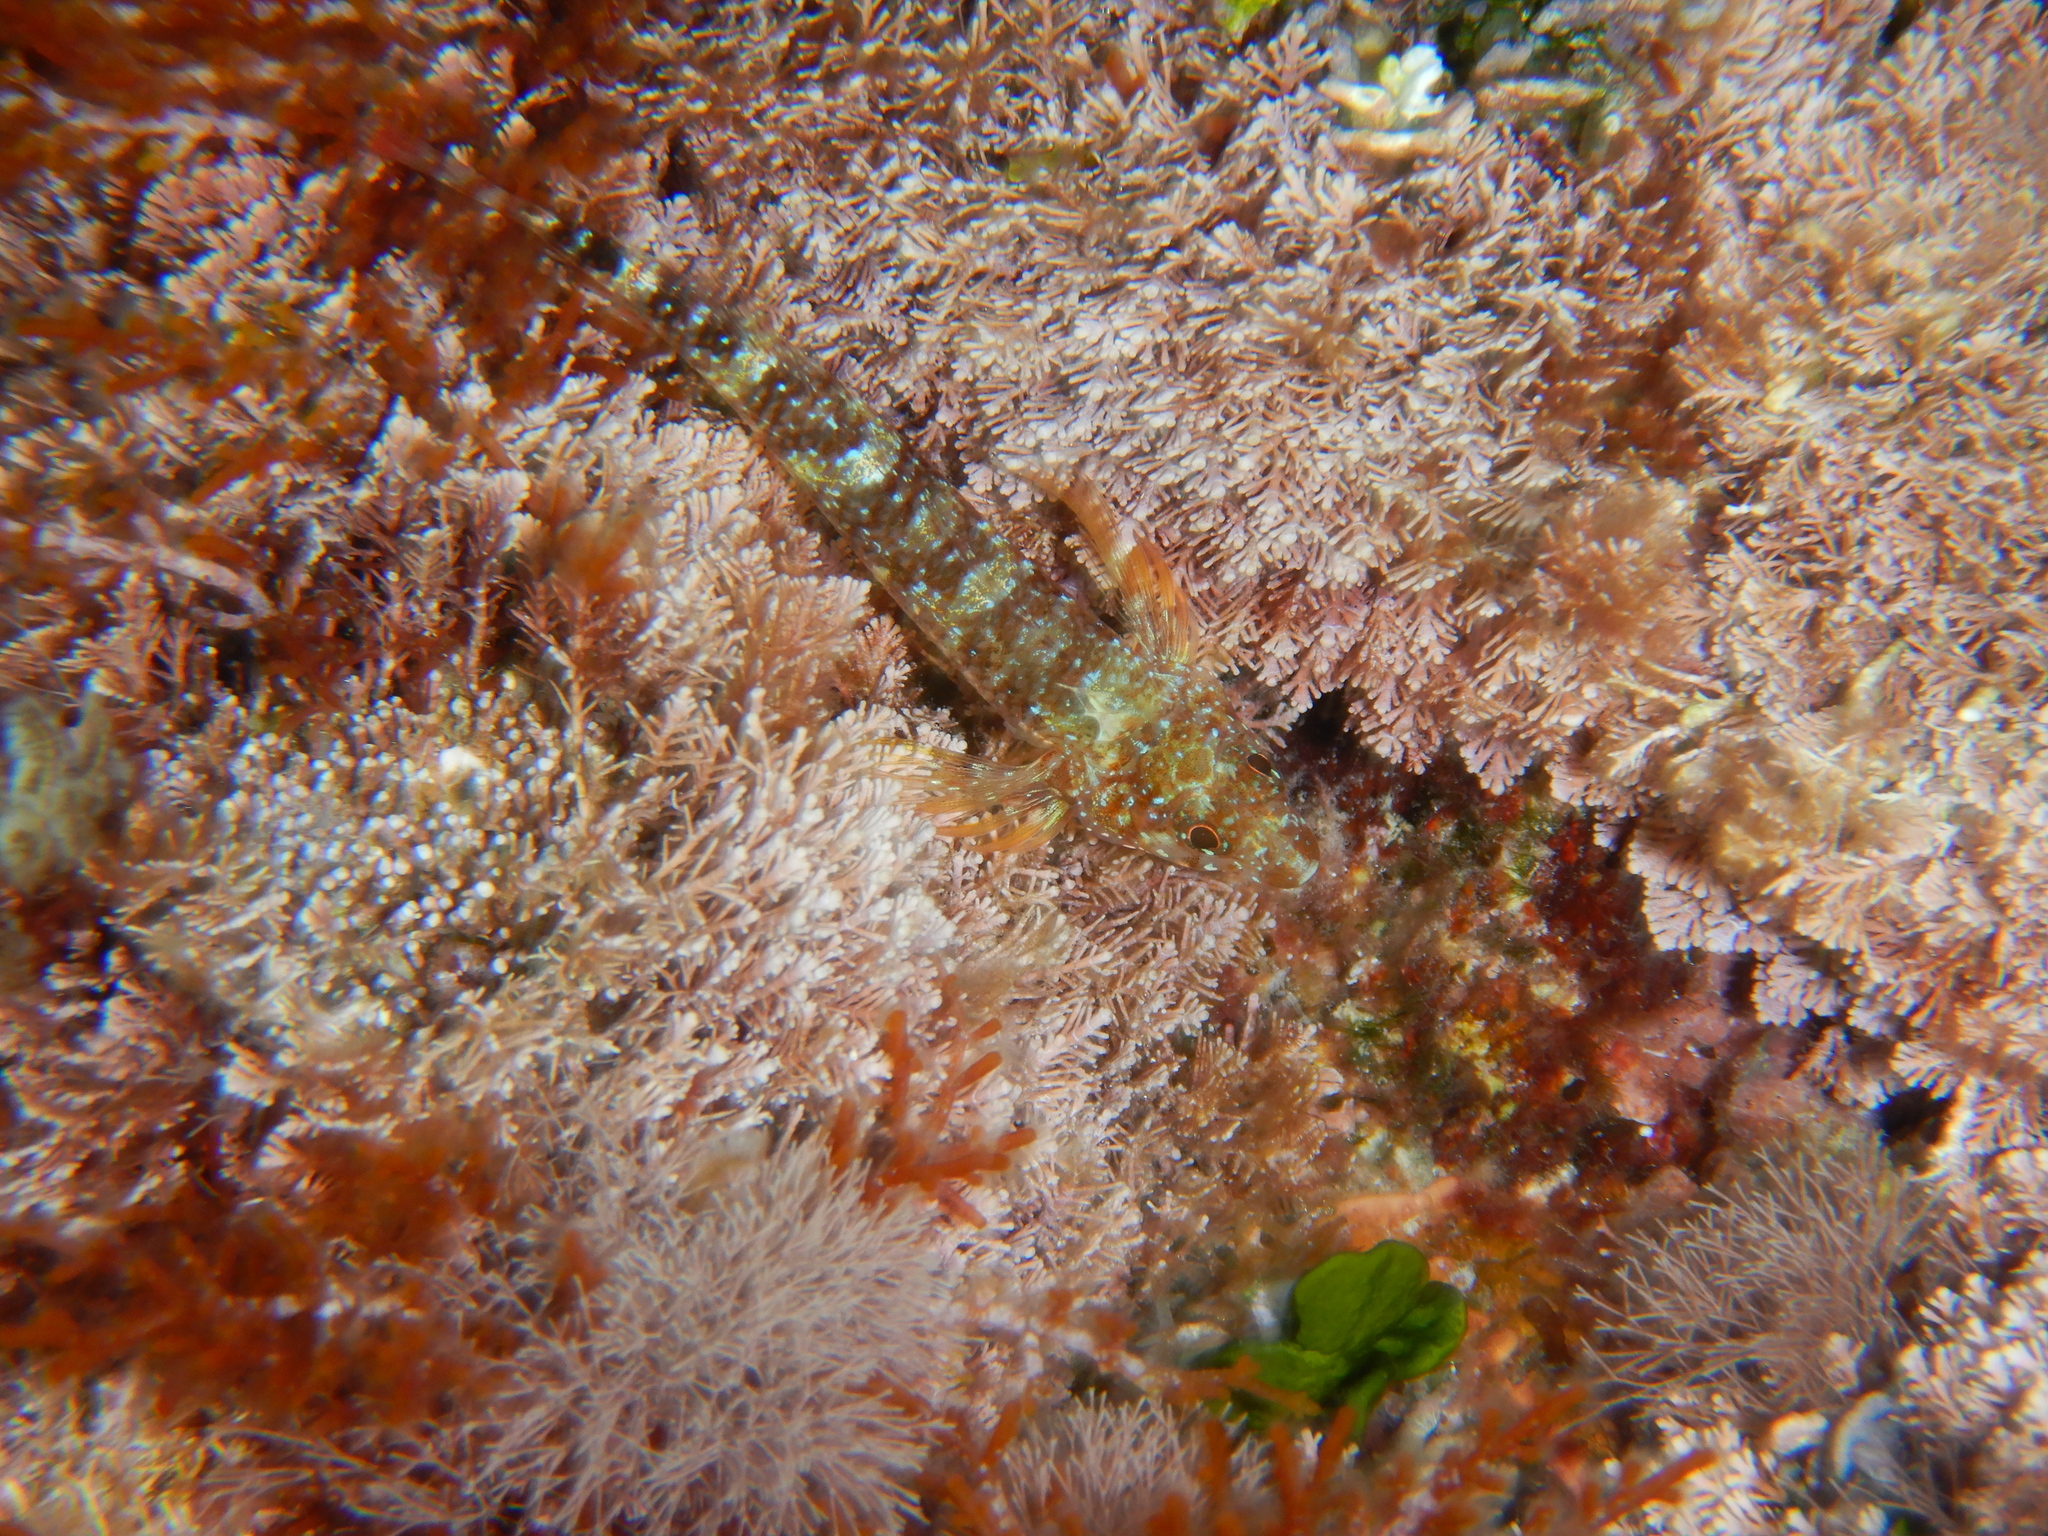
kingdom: Animalia
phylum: Chordata
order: Perciformes
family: Tripterygiidae
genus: Tripterygion
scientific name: Tripterygion tripteronotum
